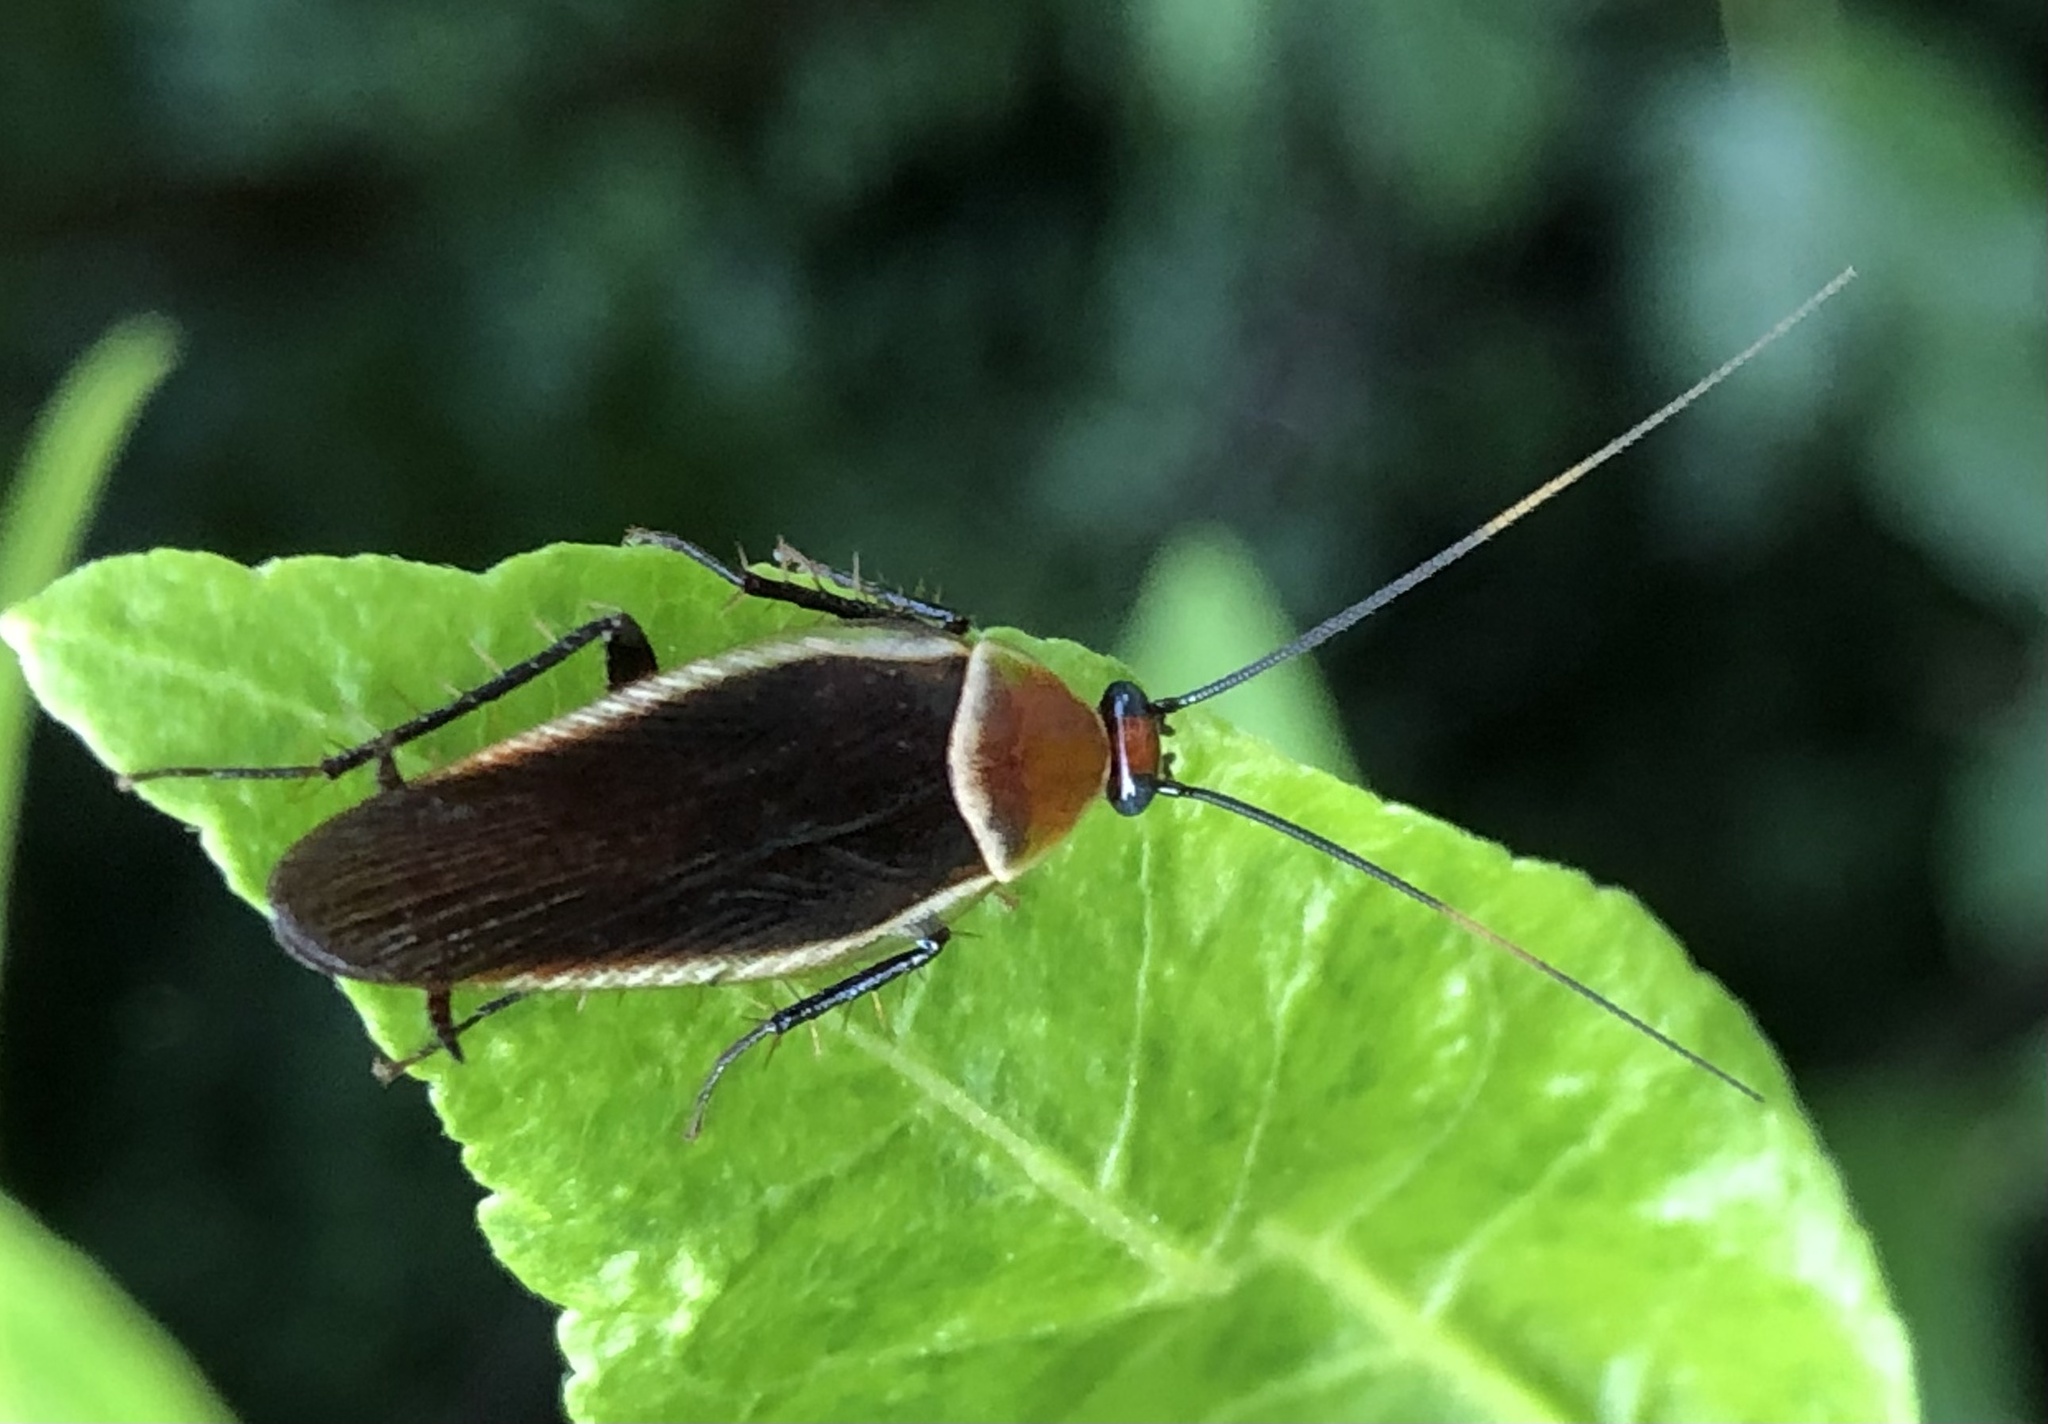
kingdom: Animalia
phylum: Arthropoda
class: Insecta
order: Blattodea
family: Ectobiidae
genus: Pseudomops
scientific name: Pseudomops septentrionalis
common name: Pale-bordered field cockroach
